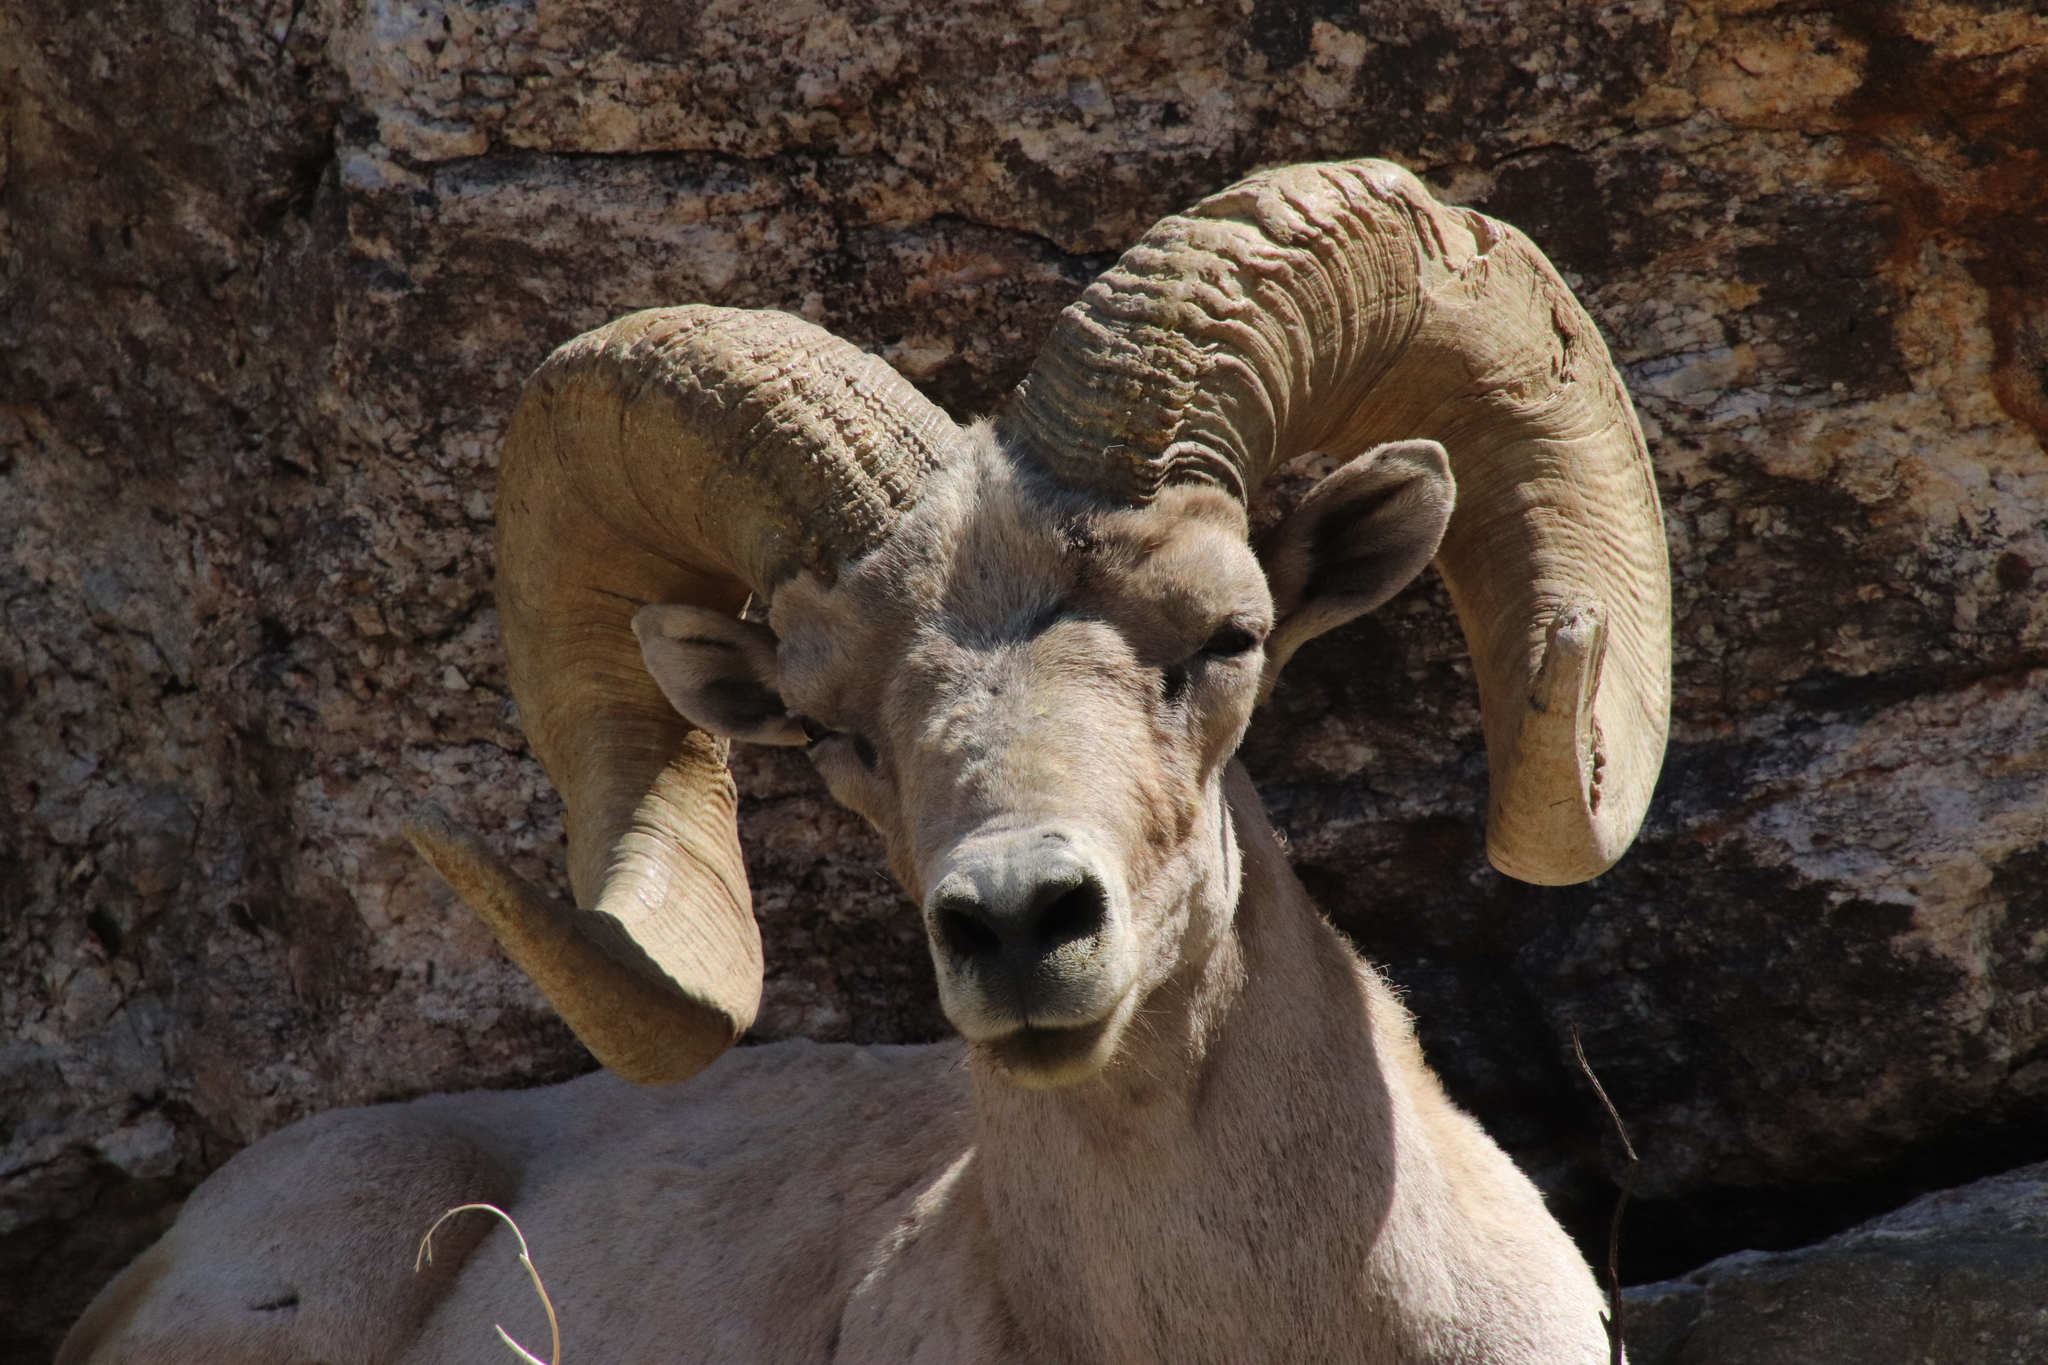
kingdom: Animalia
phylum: Chordata
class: Mammalia
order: Artiodactyla
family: Bovidae
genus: Ovis
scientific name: Ovis canadensis
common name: Bighorn sheep
